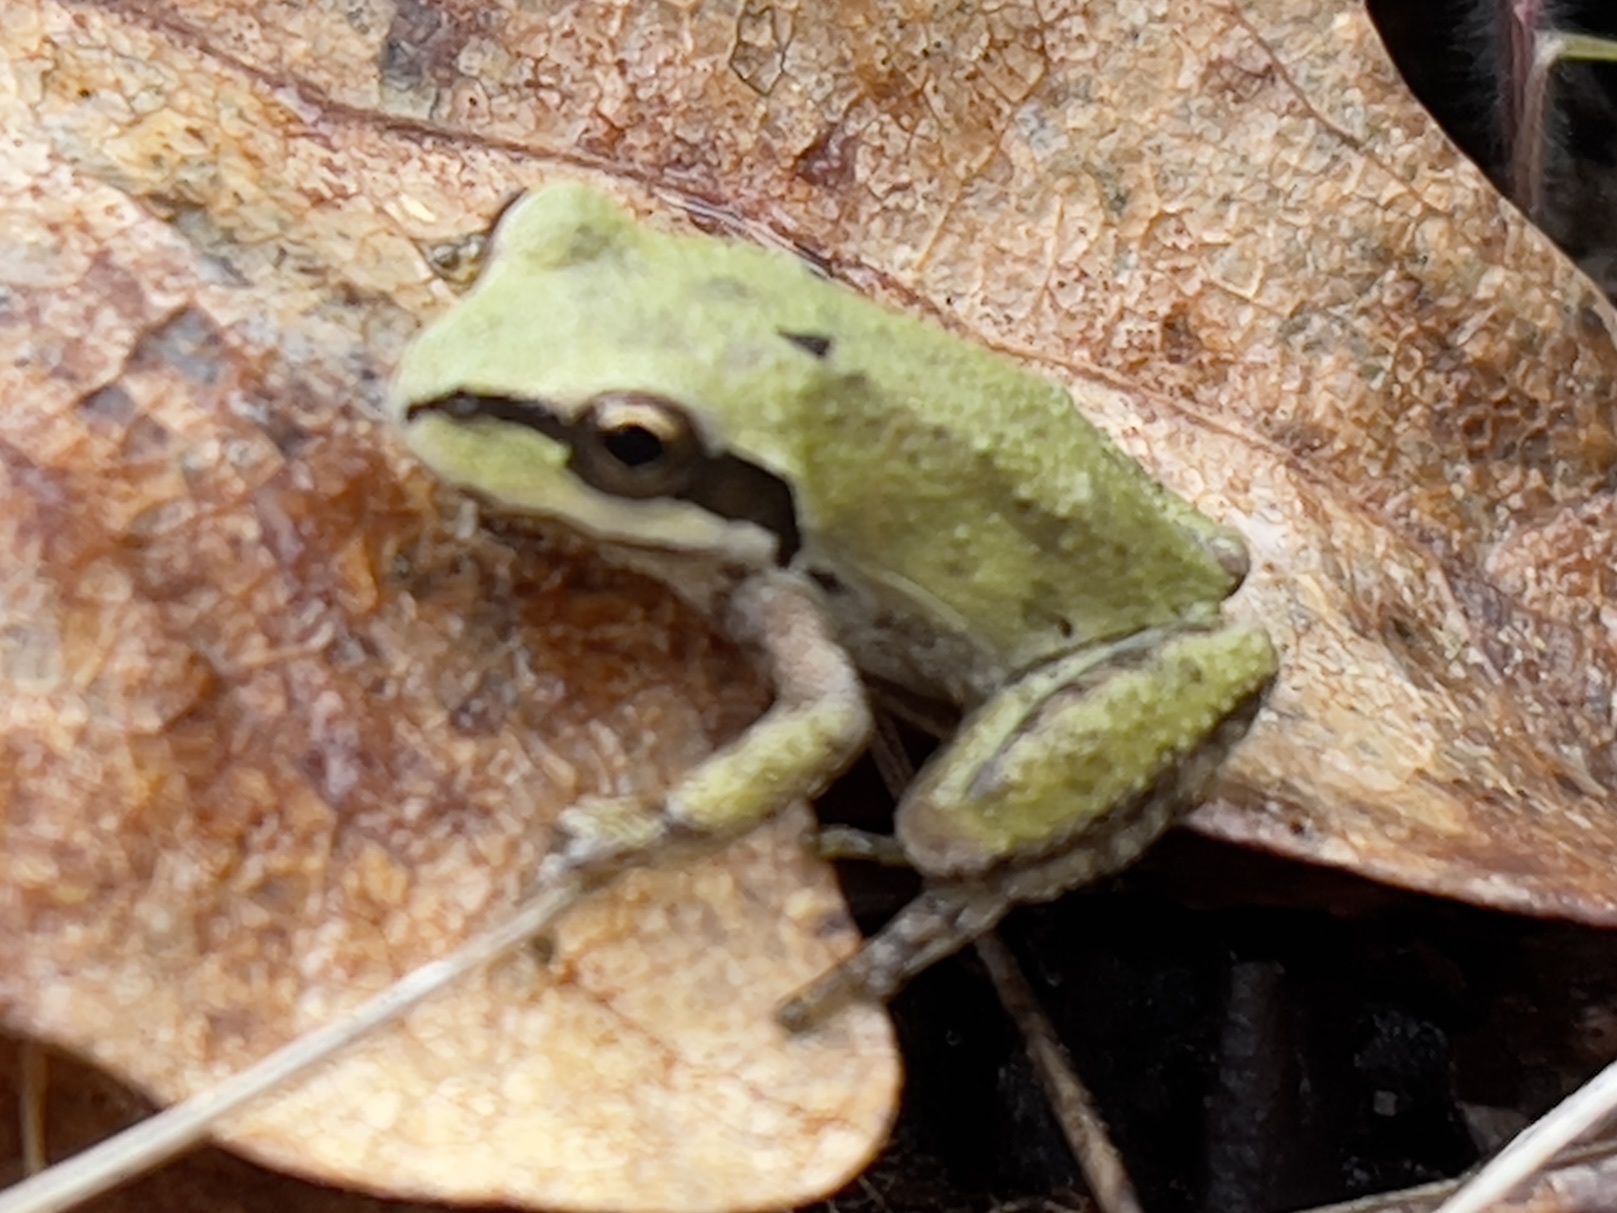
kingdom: Animalia
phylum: Chordata
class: Amphibia
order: Anura
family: Hylidae
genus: Pseudacris
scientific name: Pseudacris regilla
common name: Pacific chorus frog
